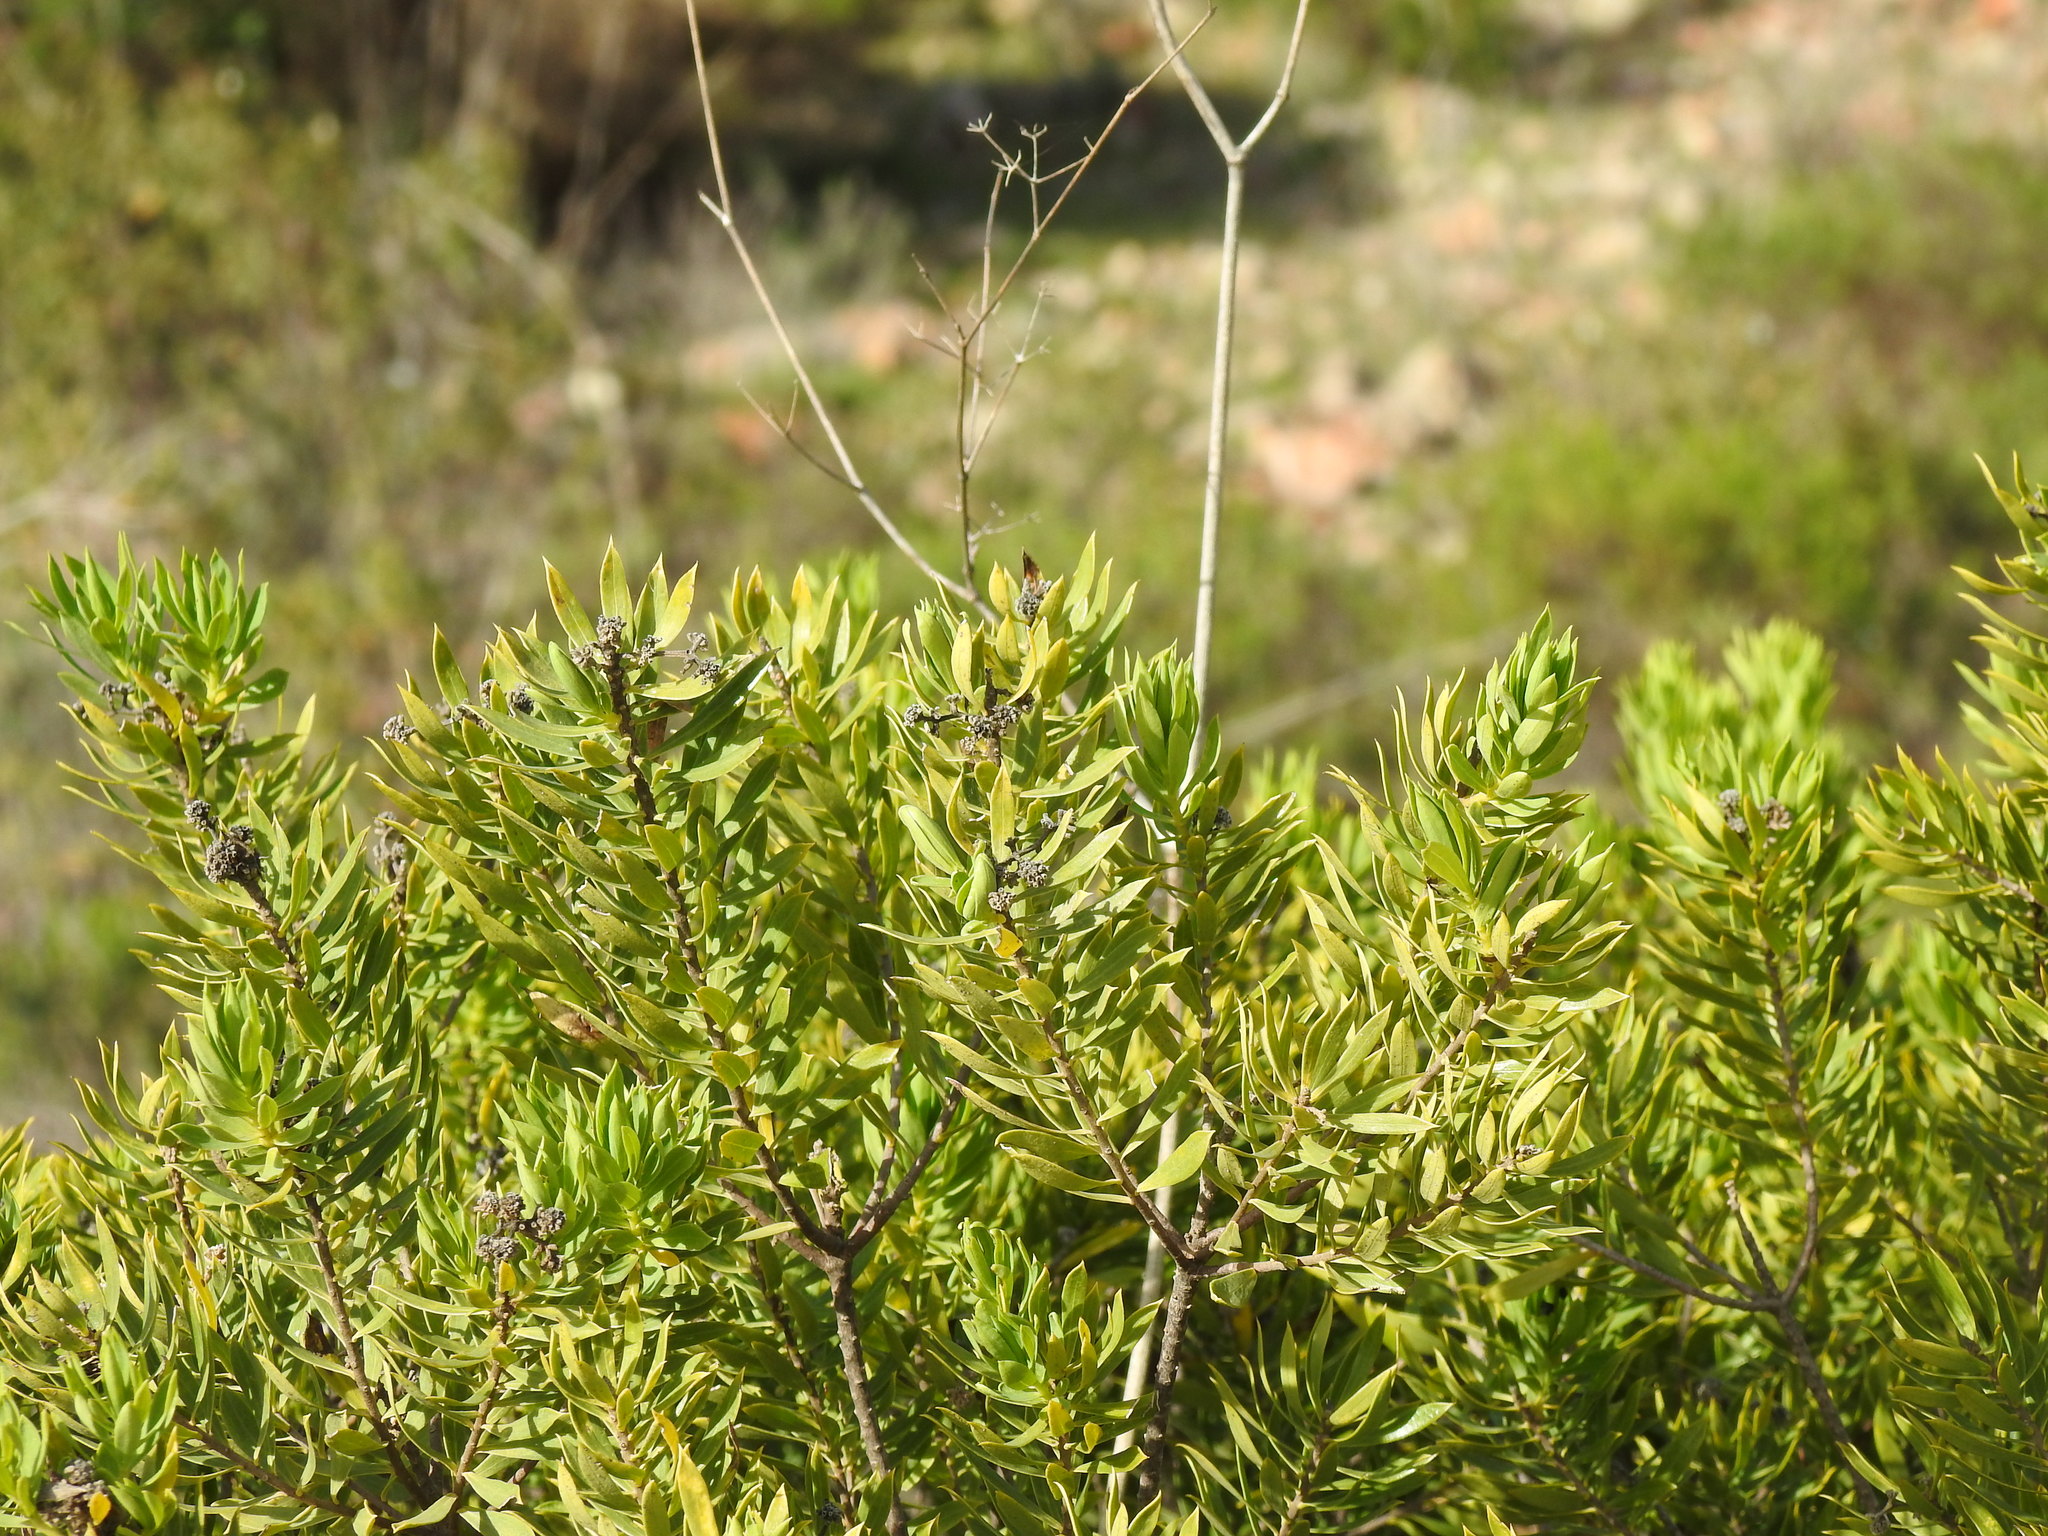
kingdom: Plantae
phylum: Tracheophyta
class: Magnoliopsida
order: Malvales
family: Thymelaeaceae
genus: Daphne
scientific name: Daphne gnidium
